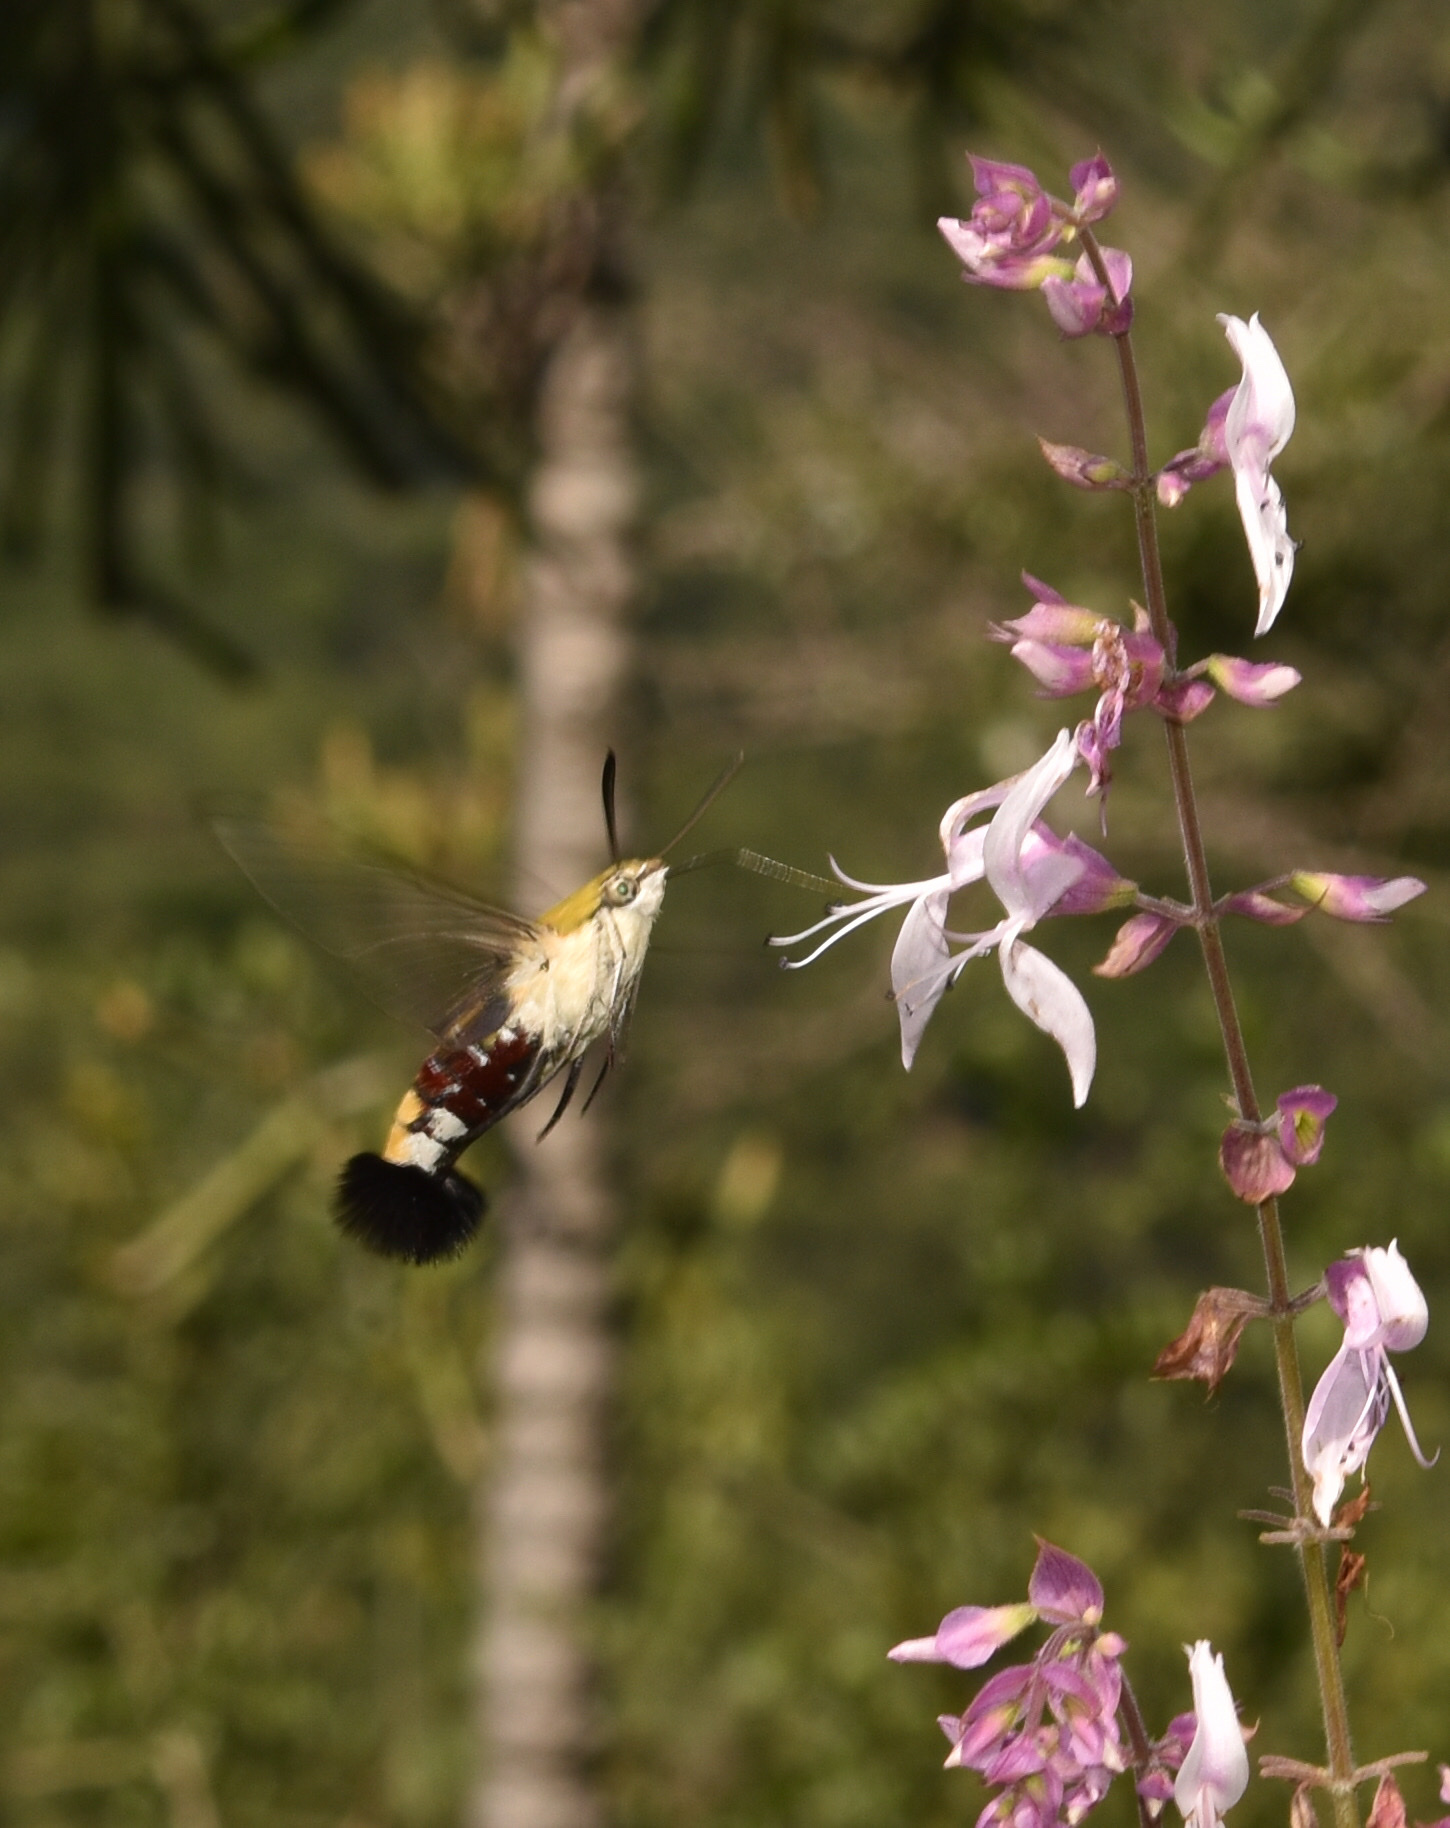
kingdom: Animalia
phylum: Arthropoda
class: Insecta
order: Lepidoptera
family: Sphingidae
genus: Cephonodes
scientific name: Cephonodes hylas
